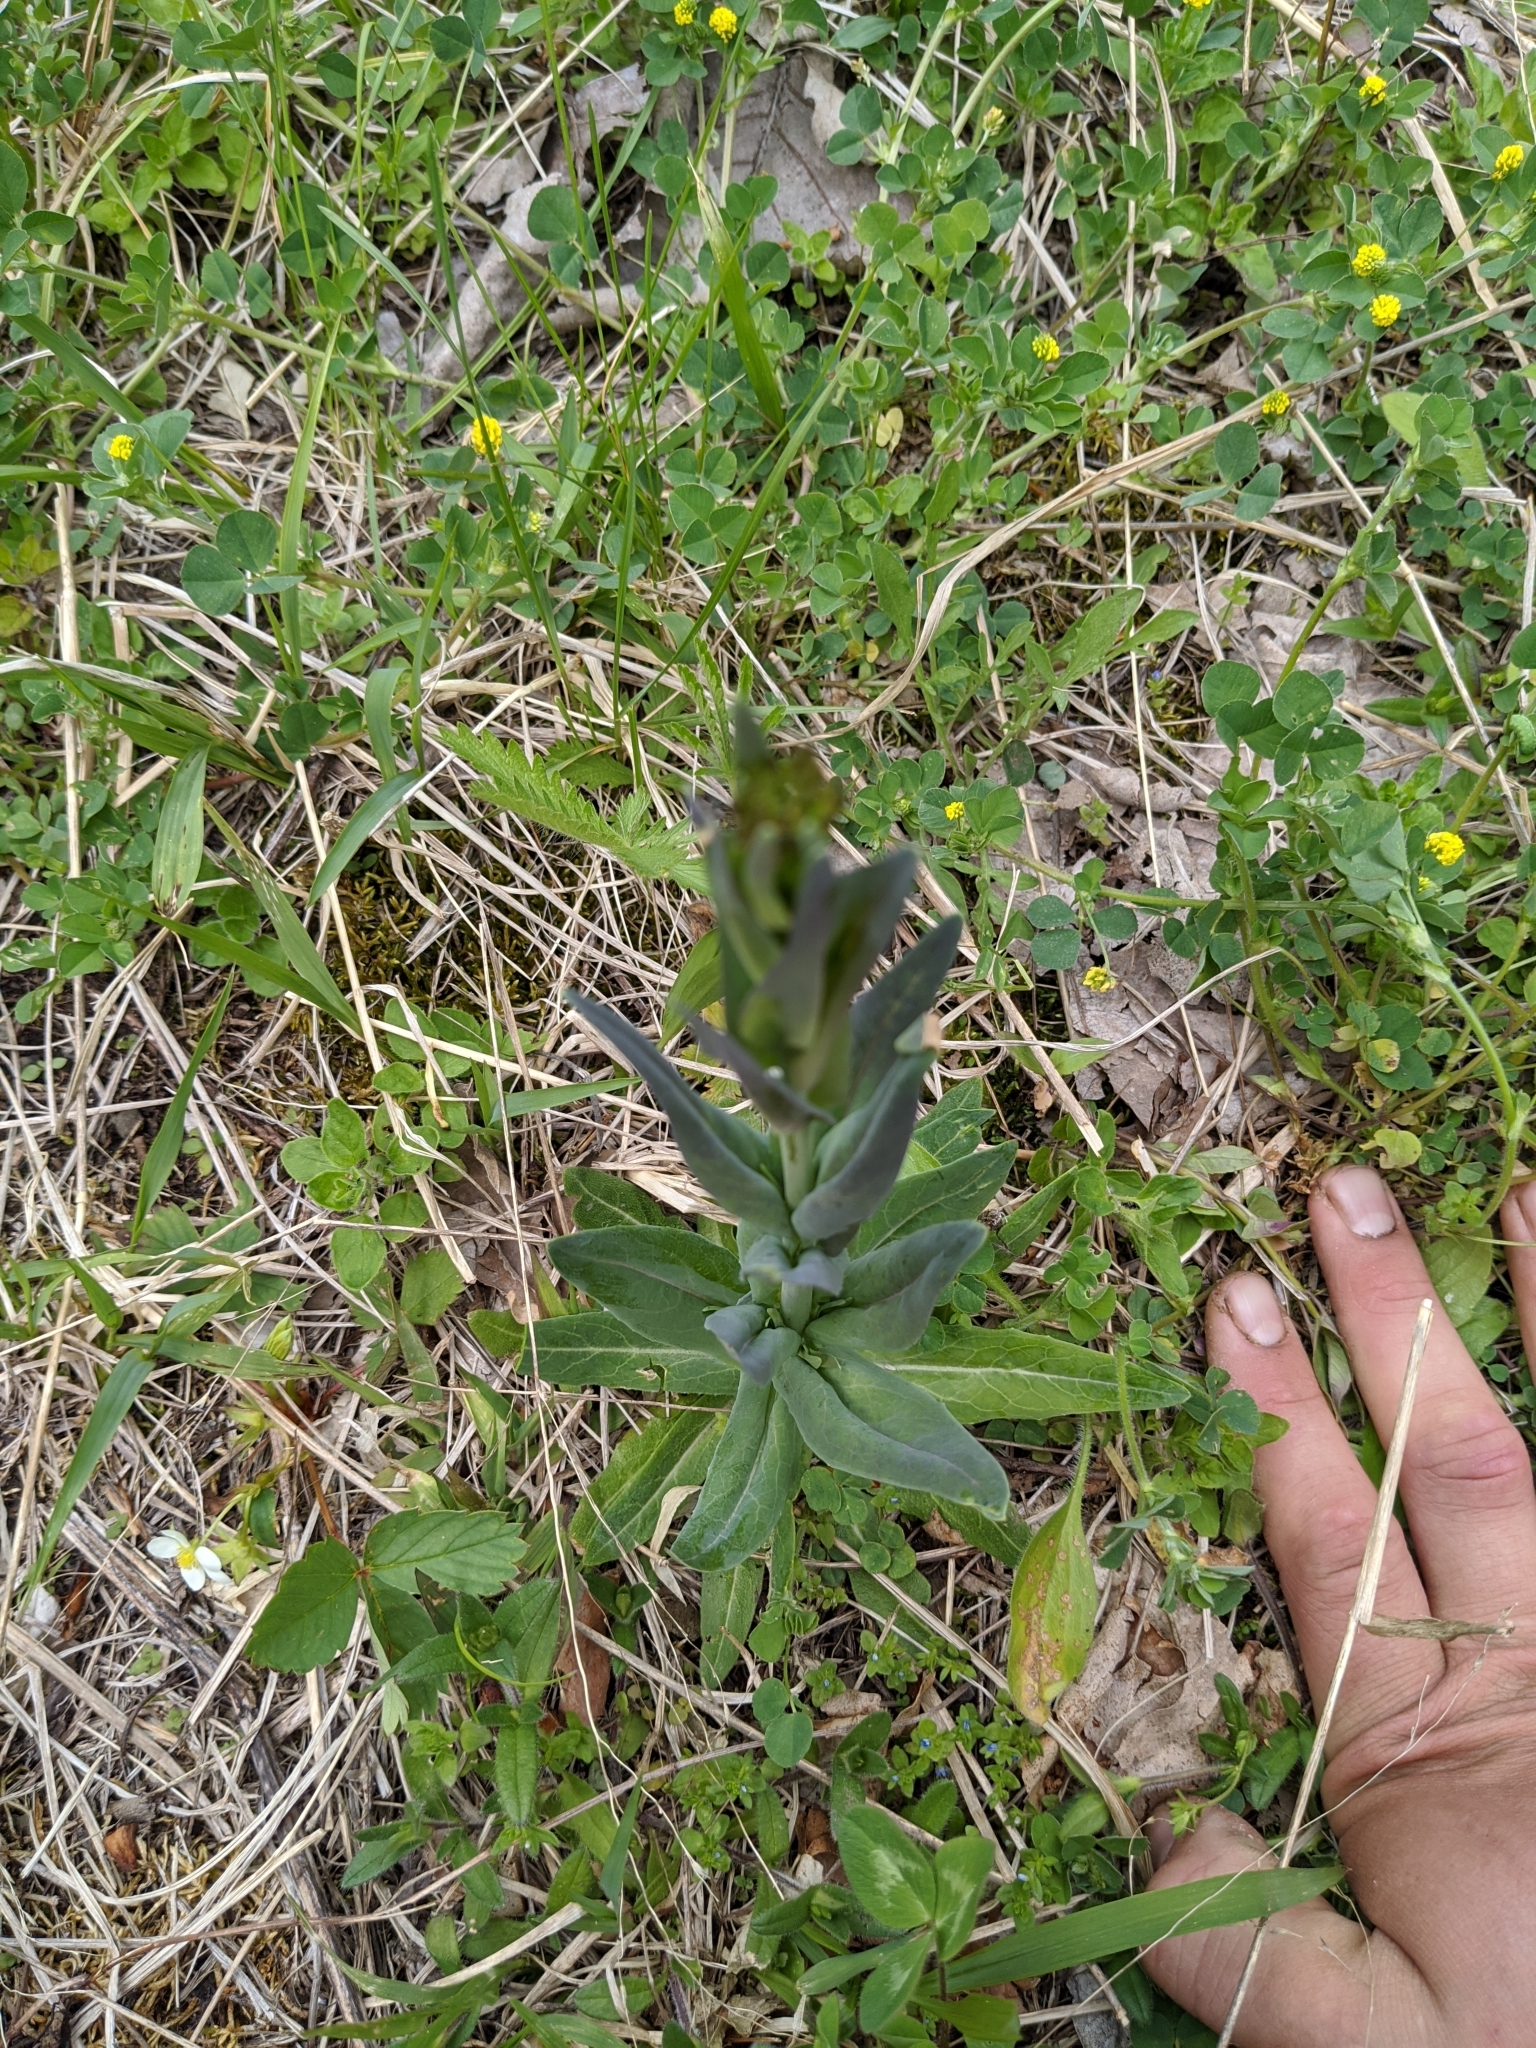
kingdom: Plantae
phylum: Tracheophyta
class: Magnoliopsida
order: Brassicales
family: Brassicaceae
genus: Turritis
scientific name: Turritis glabra
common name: Tower rockcress
